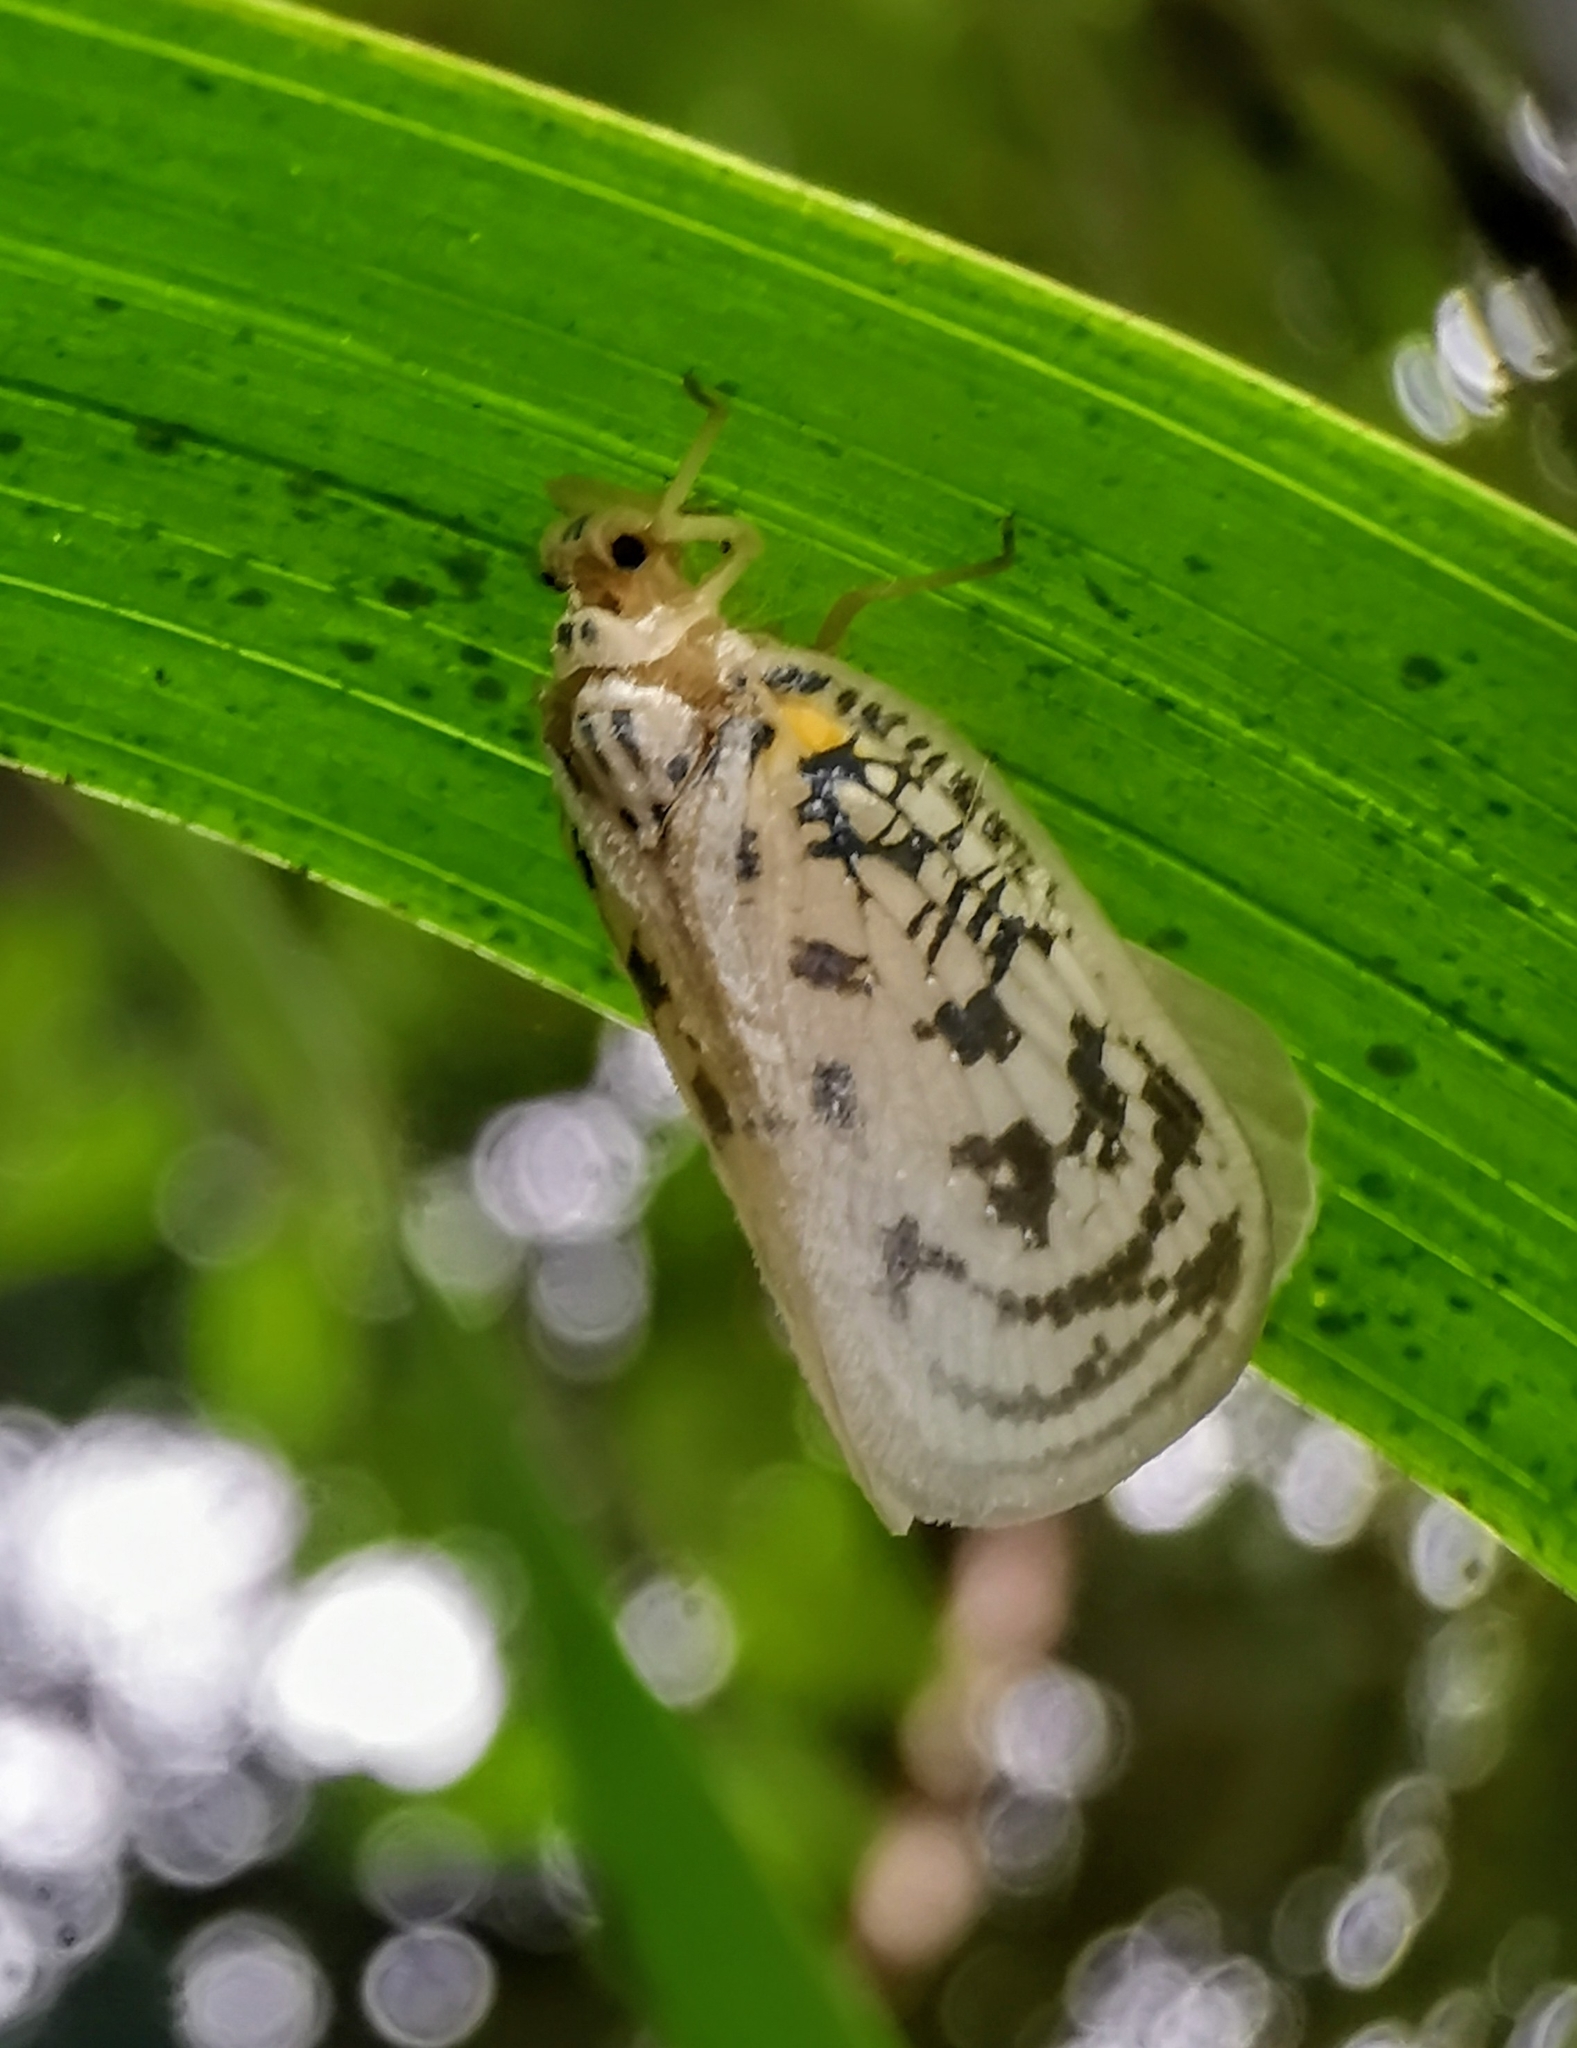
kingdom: Animalia
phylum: Arthropoda
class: Insecta
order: Hemiptera
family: Flatidae
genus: Copsyrna
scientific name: Copsyrna maculata
